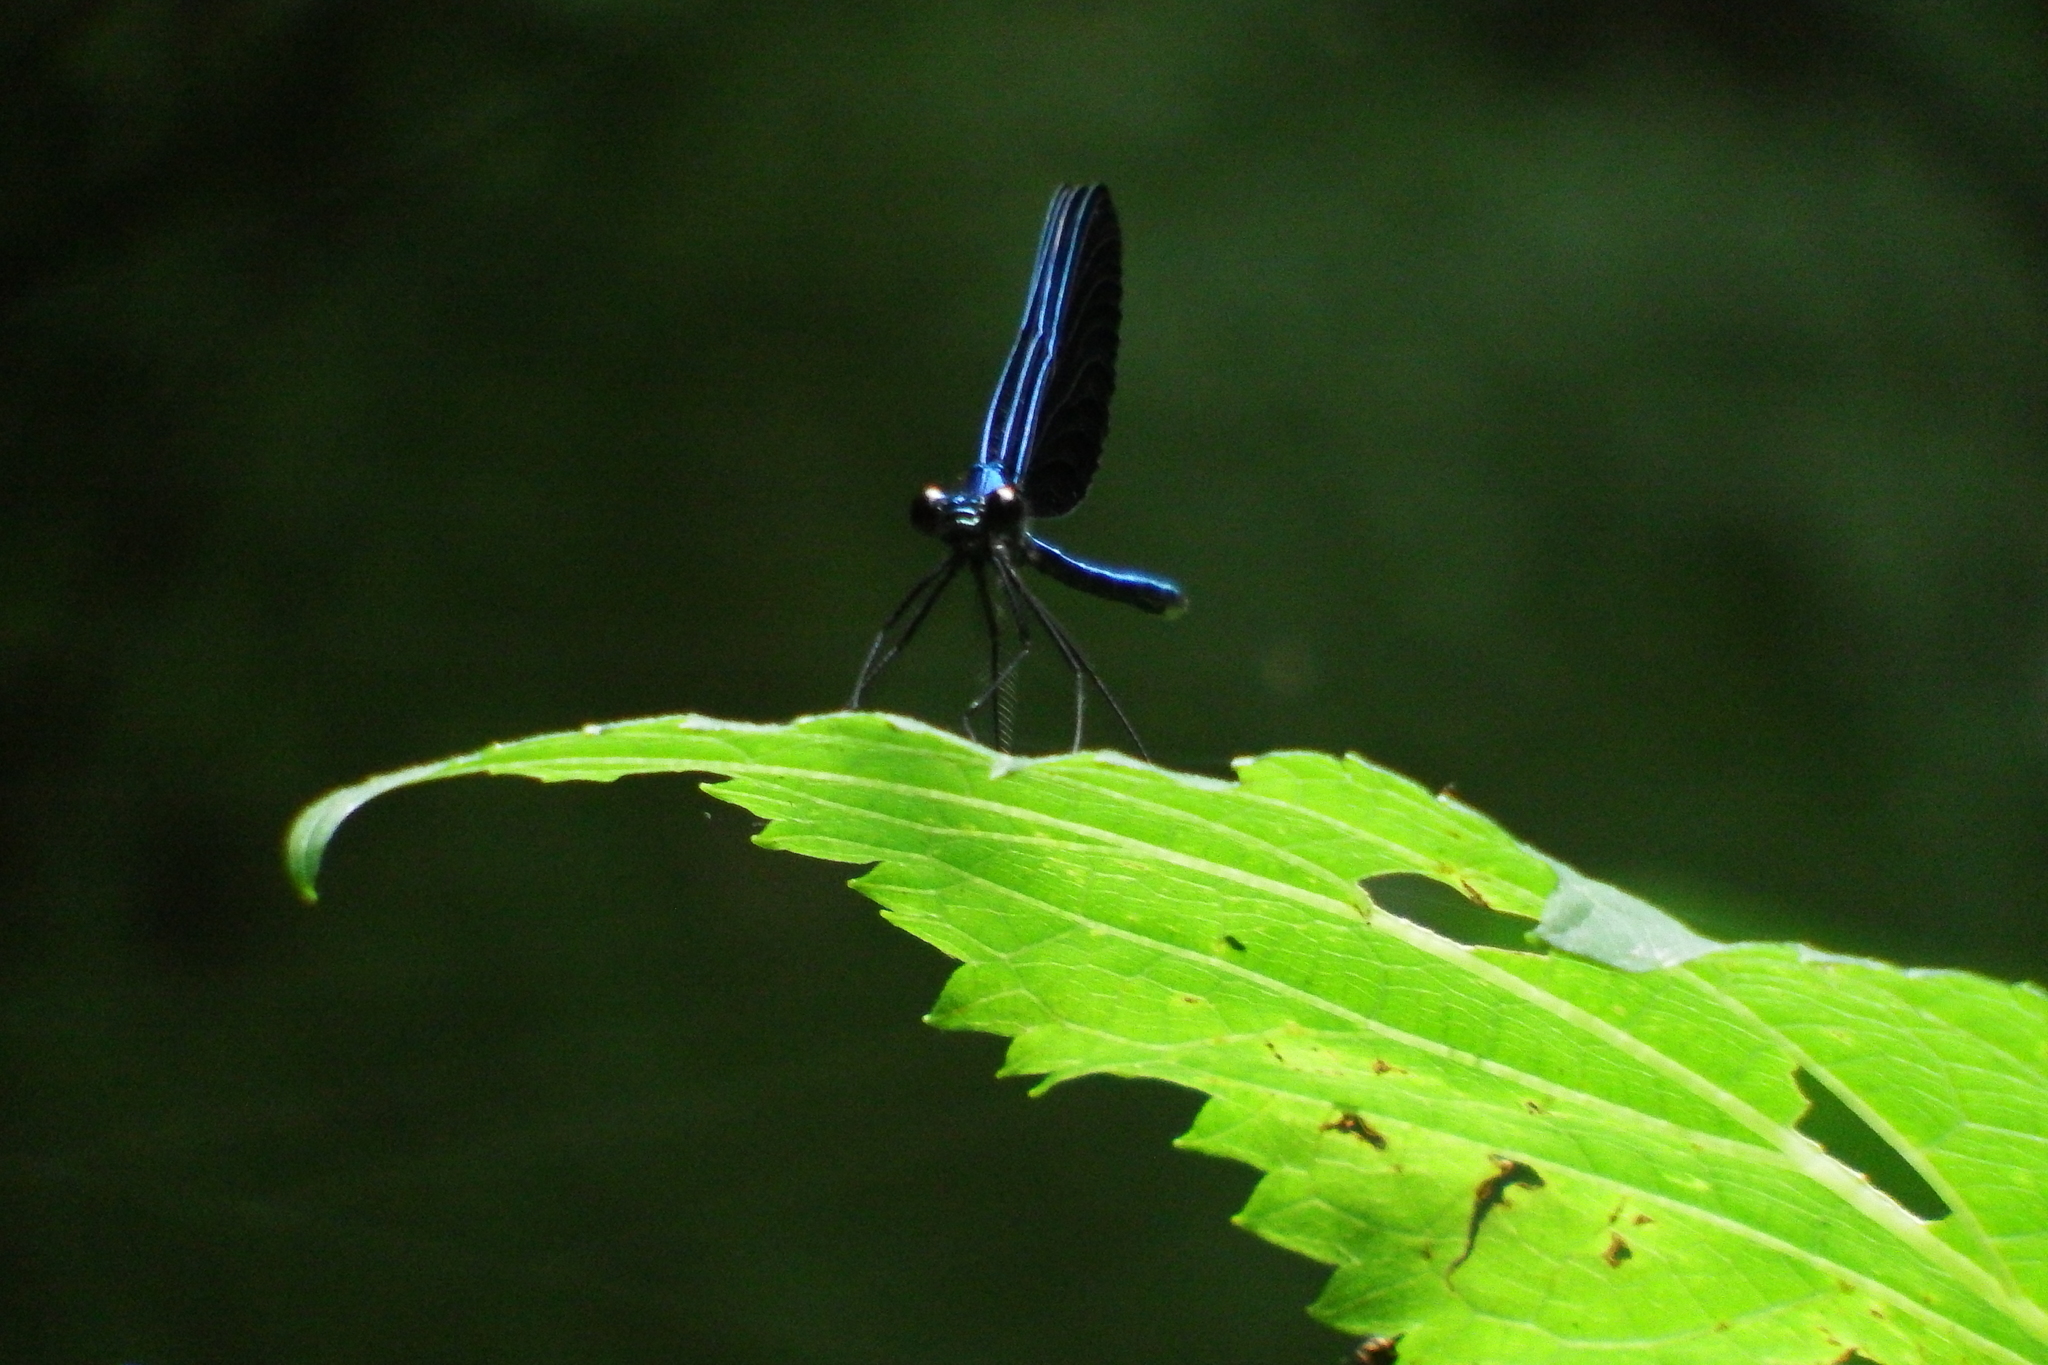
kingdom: Animalia
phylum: Arthropoda
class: Insecta
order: Odonata
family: Calopterygidae
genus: Calopteryx
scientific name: Calopteryx maculata
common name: Ebony jewelwing
